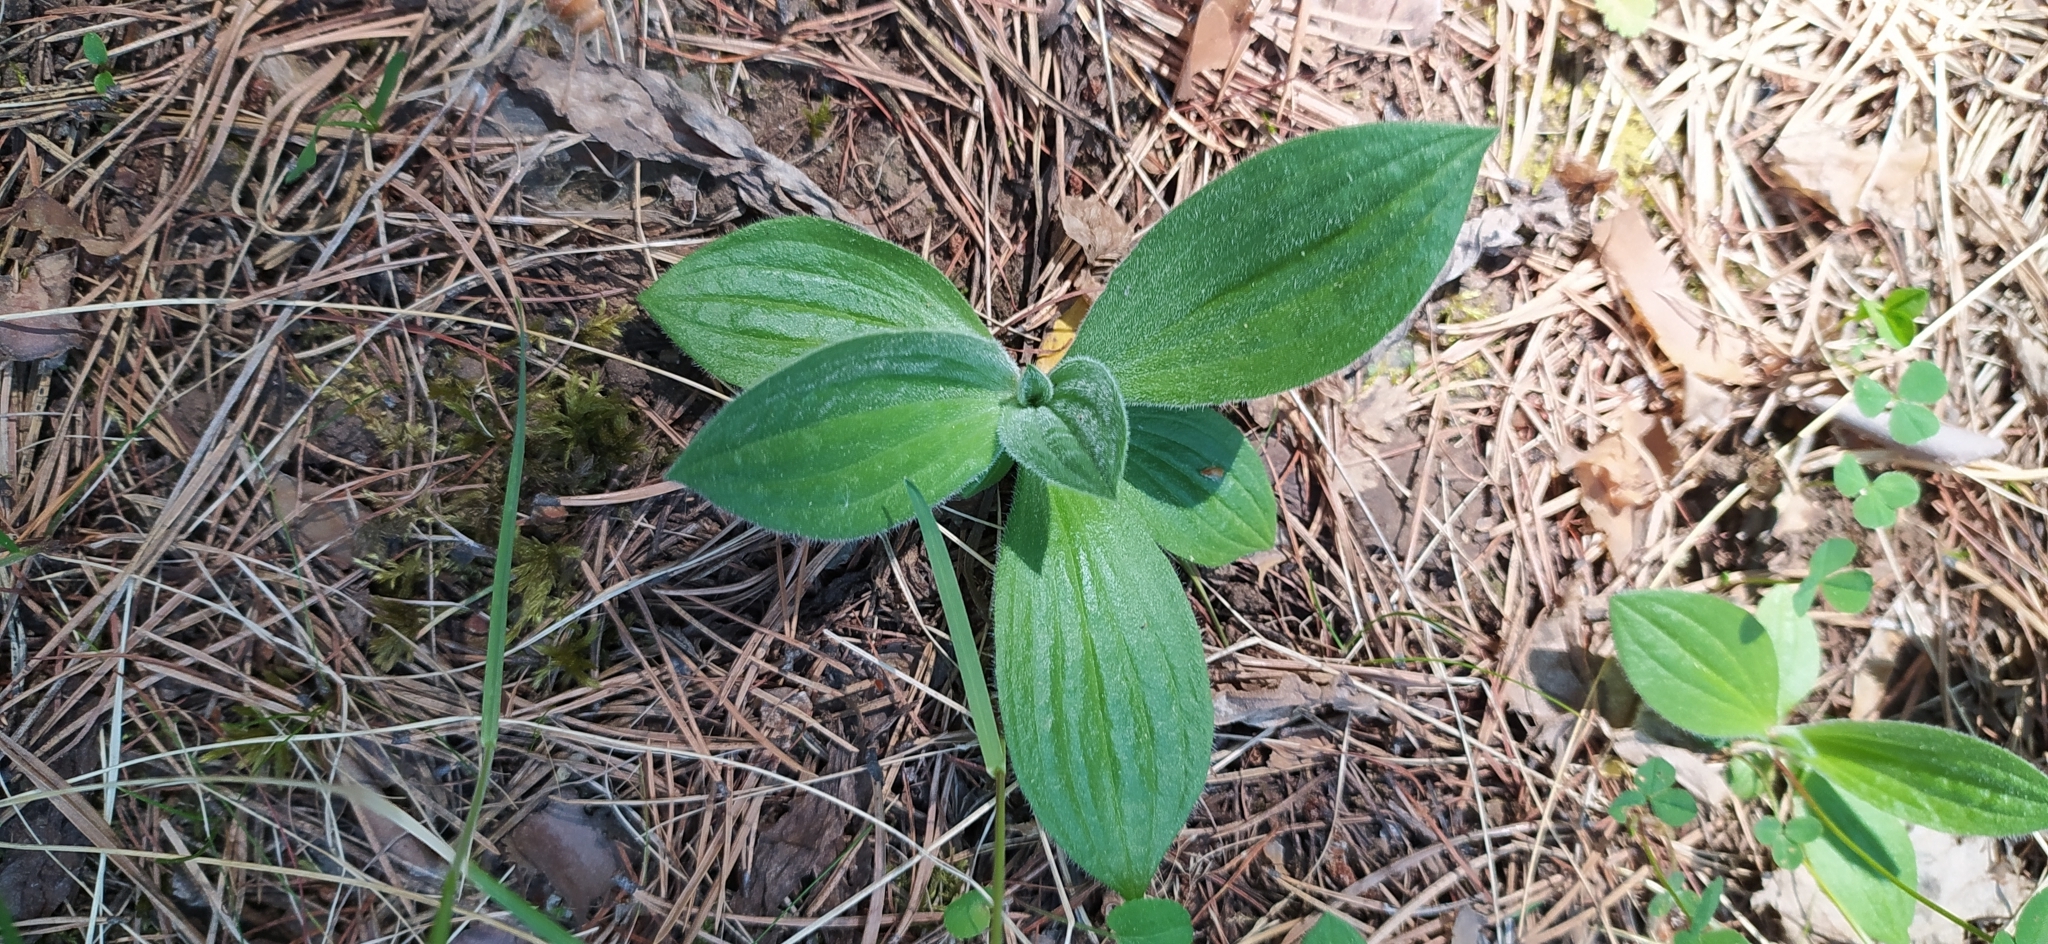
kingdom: Plantae
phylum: Tracheophyta
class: Magnoliopsida
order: Lamiales
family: Plantaginaceae
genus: Plantago
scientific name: Plantago media
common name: Hoary plantain
